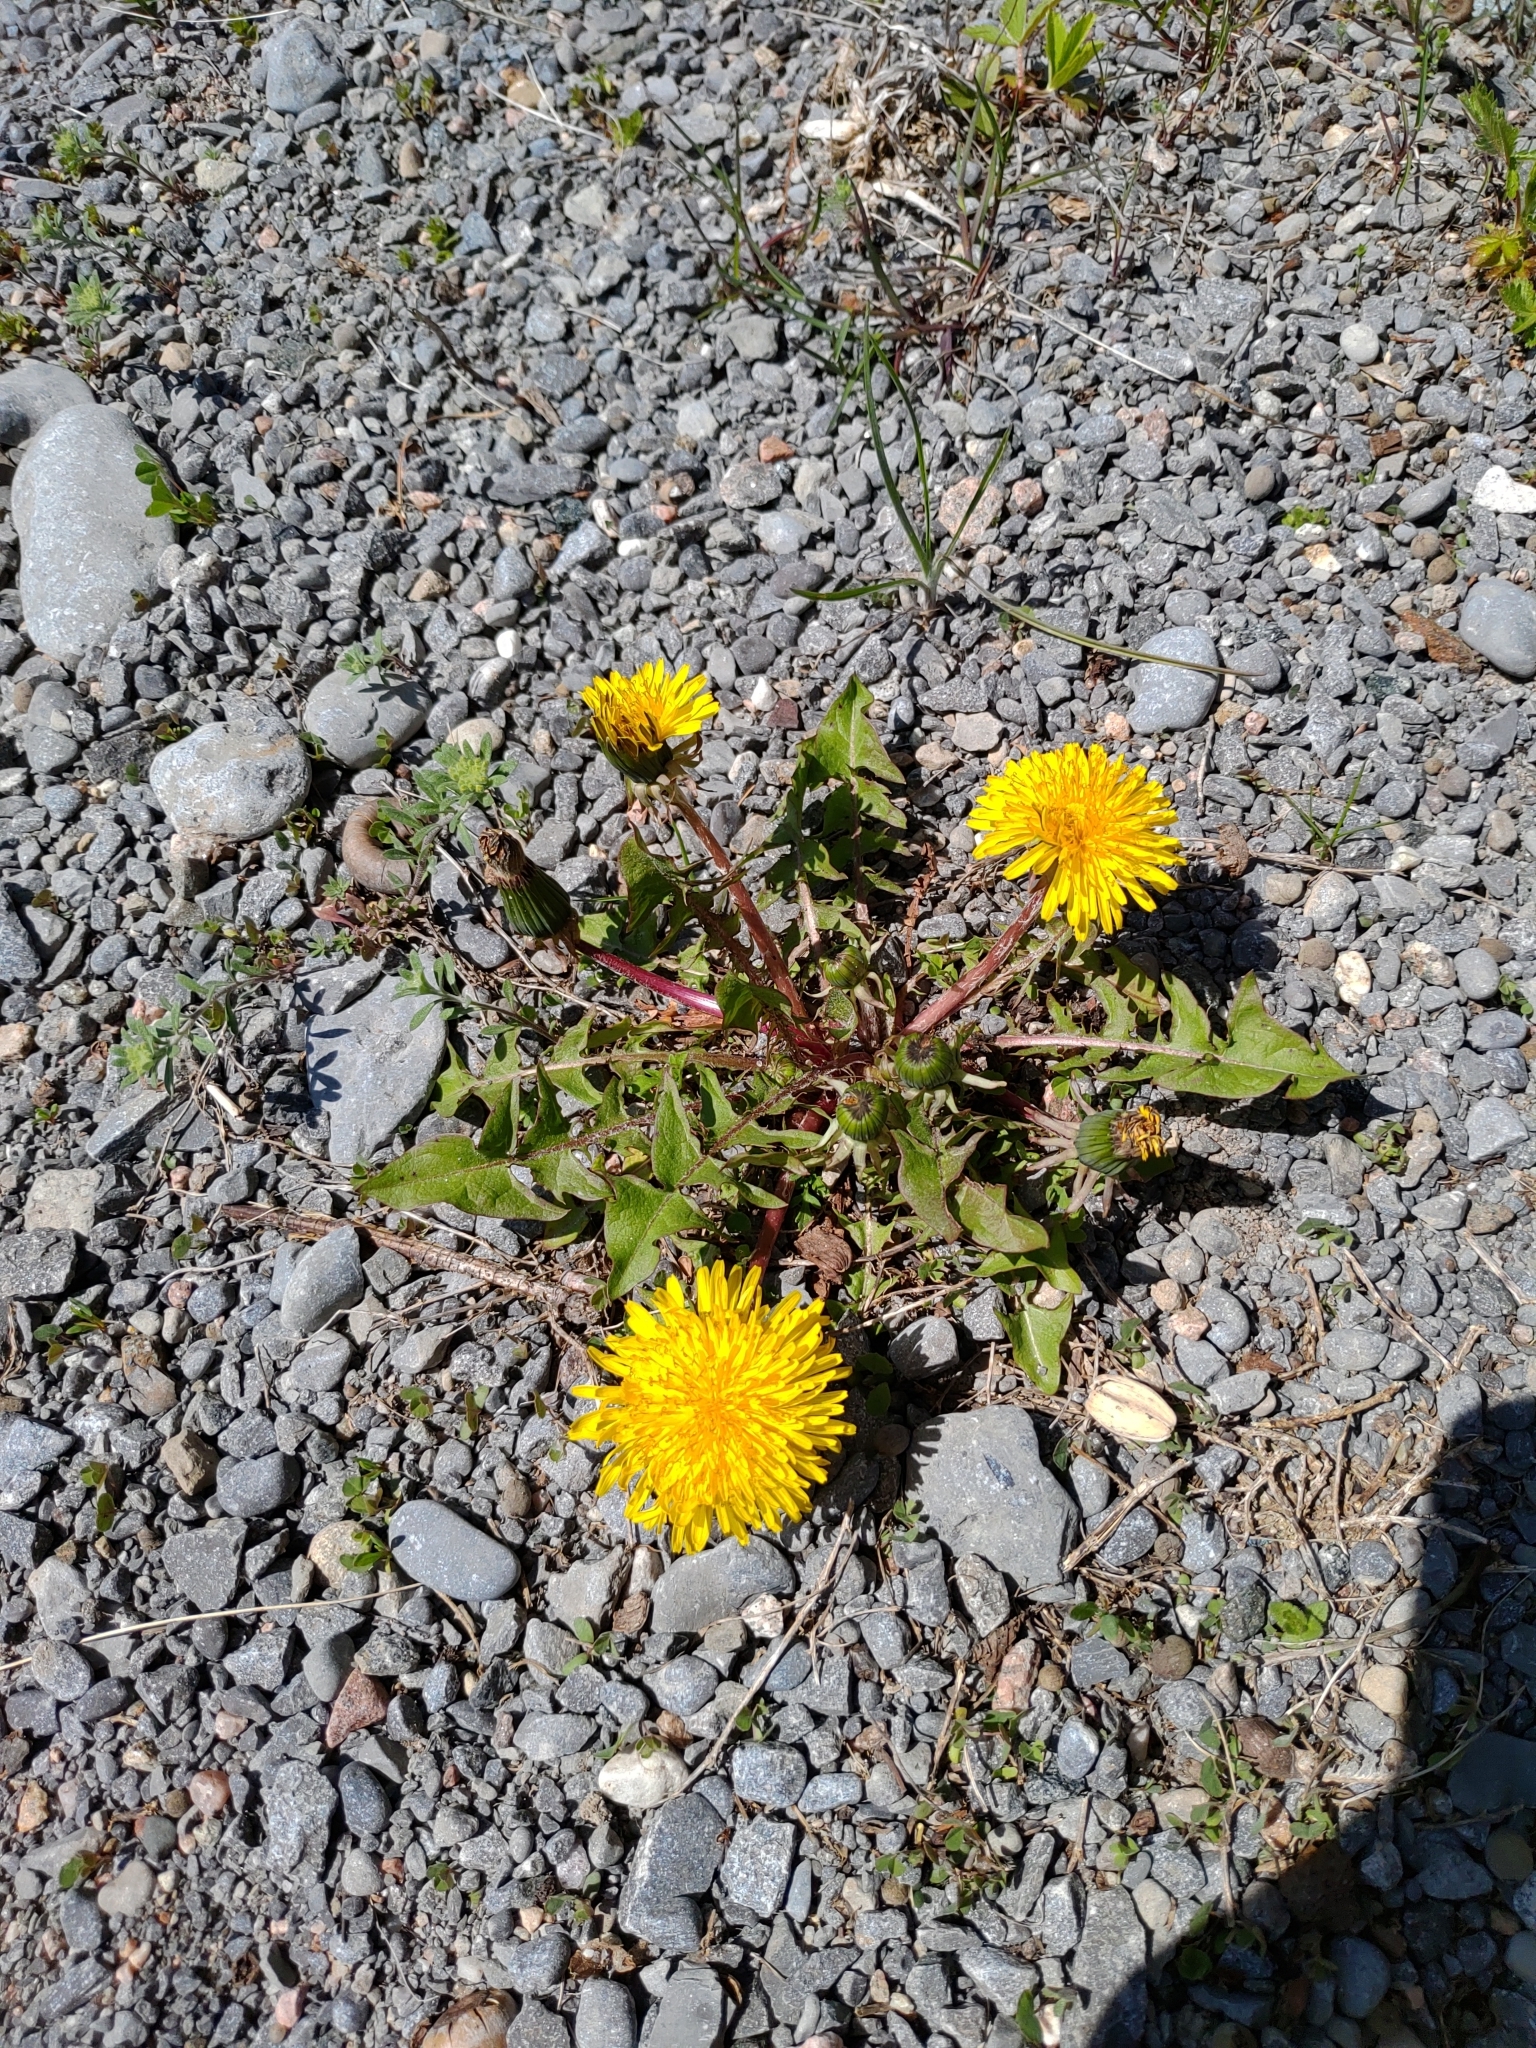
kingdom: Plantae
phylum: Tracheophyta
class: Magnoliopsida
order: Asterales
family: Asteraceae
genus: Taraxacum
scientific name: Taraxacum officinale
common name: Common dandelion
